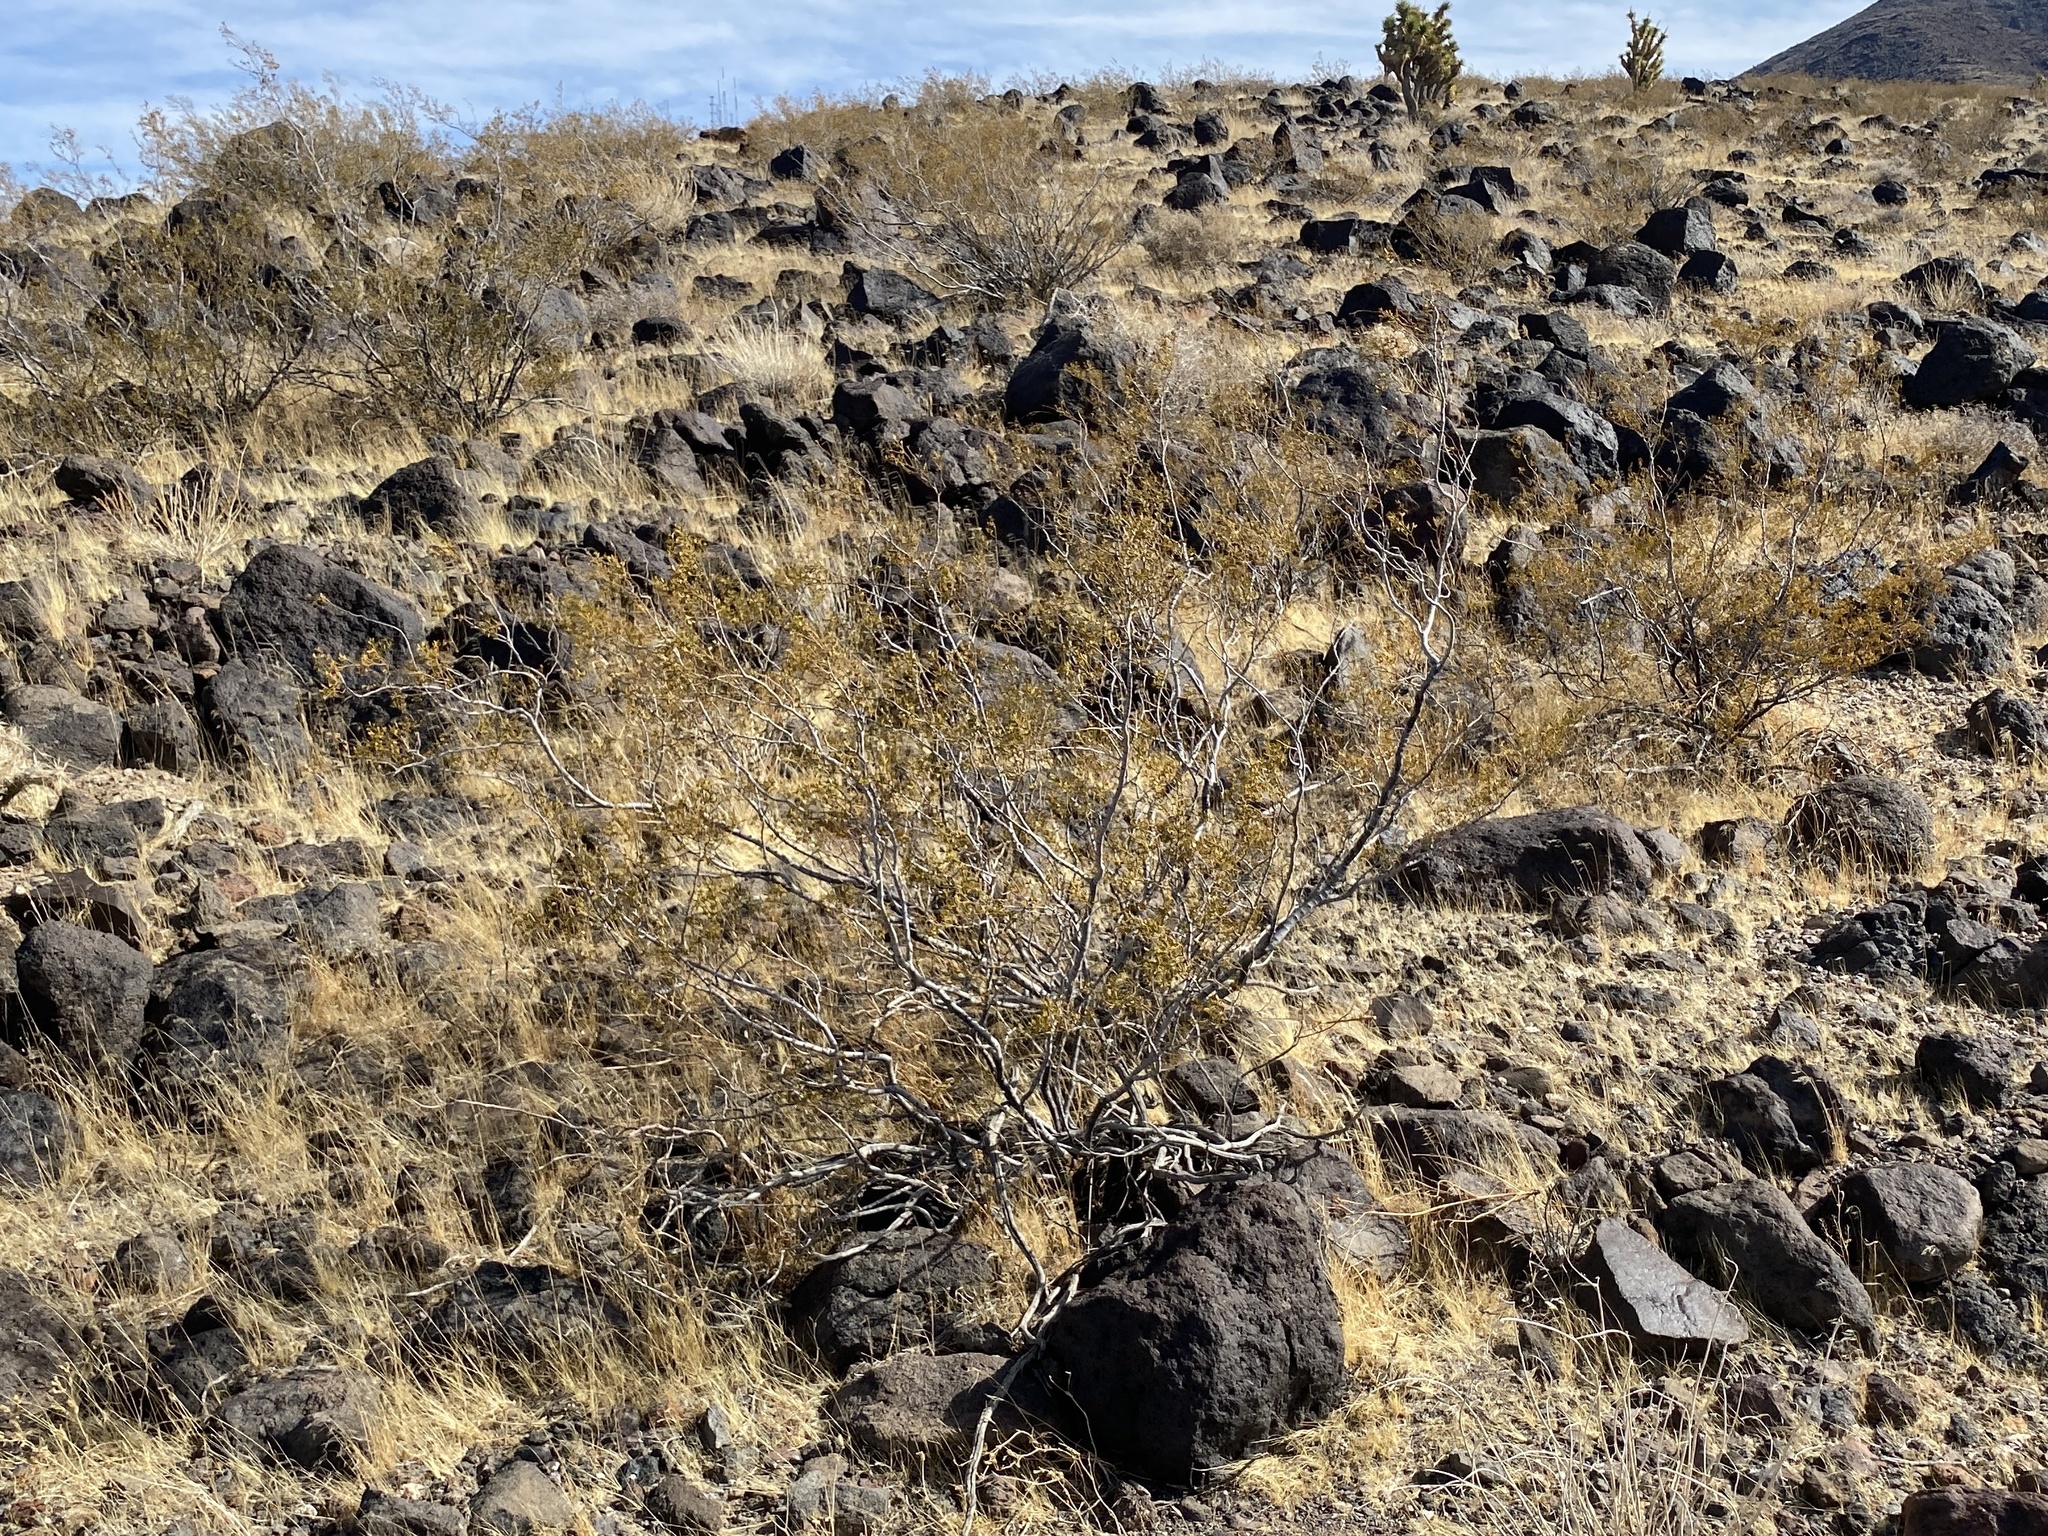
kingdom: Plantae
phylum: Tracheophyta
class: Magnoliopsida
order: Zygophyllales
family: Zygophyllaceae
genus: Larrea
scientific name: Larrea tridentata
